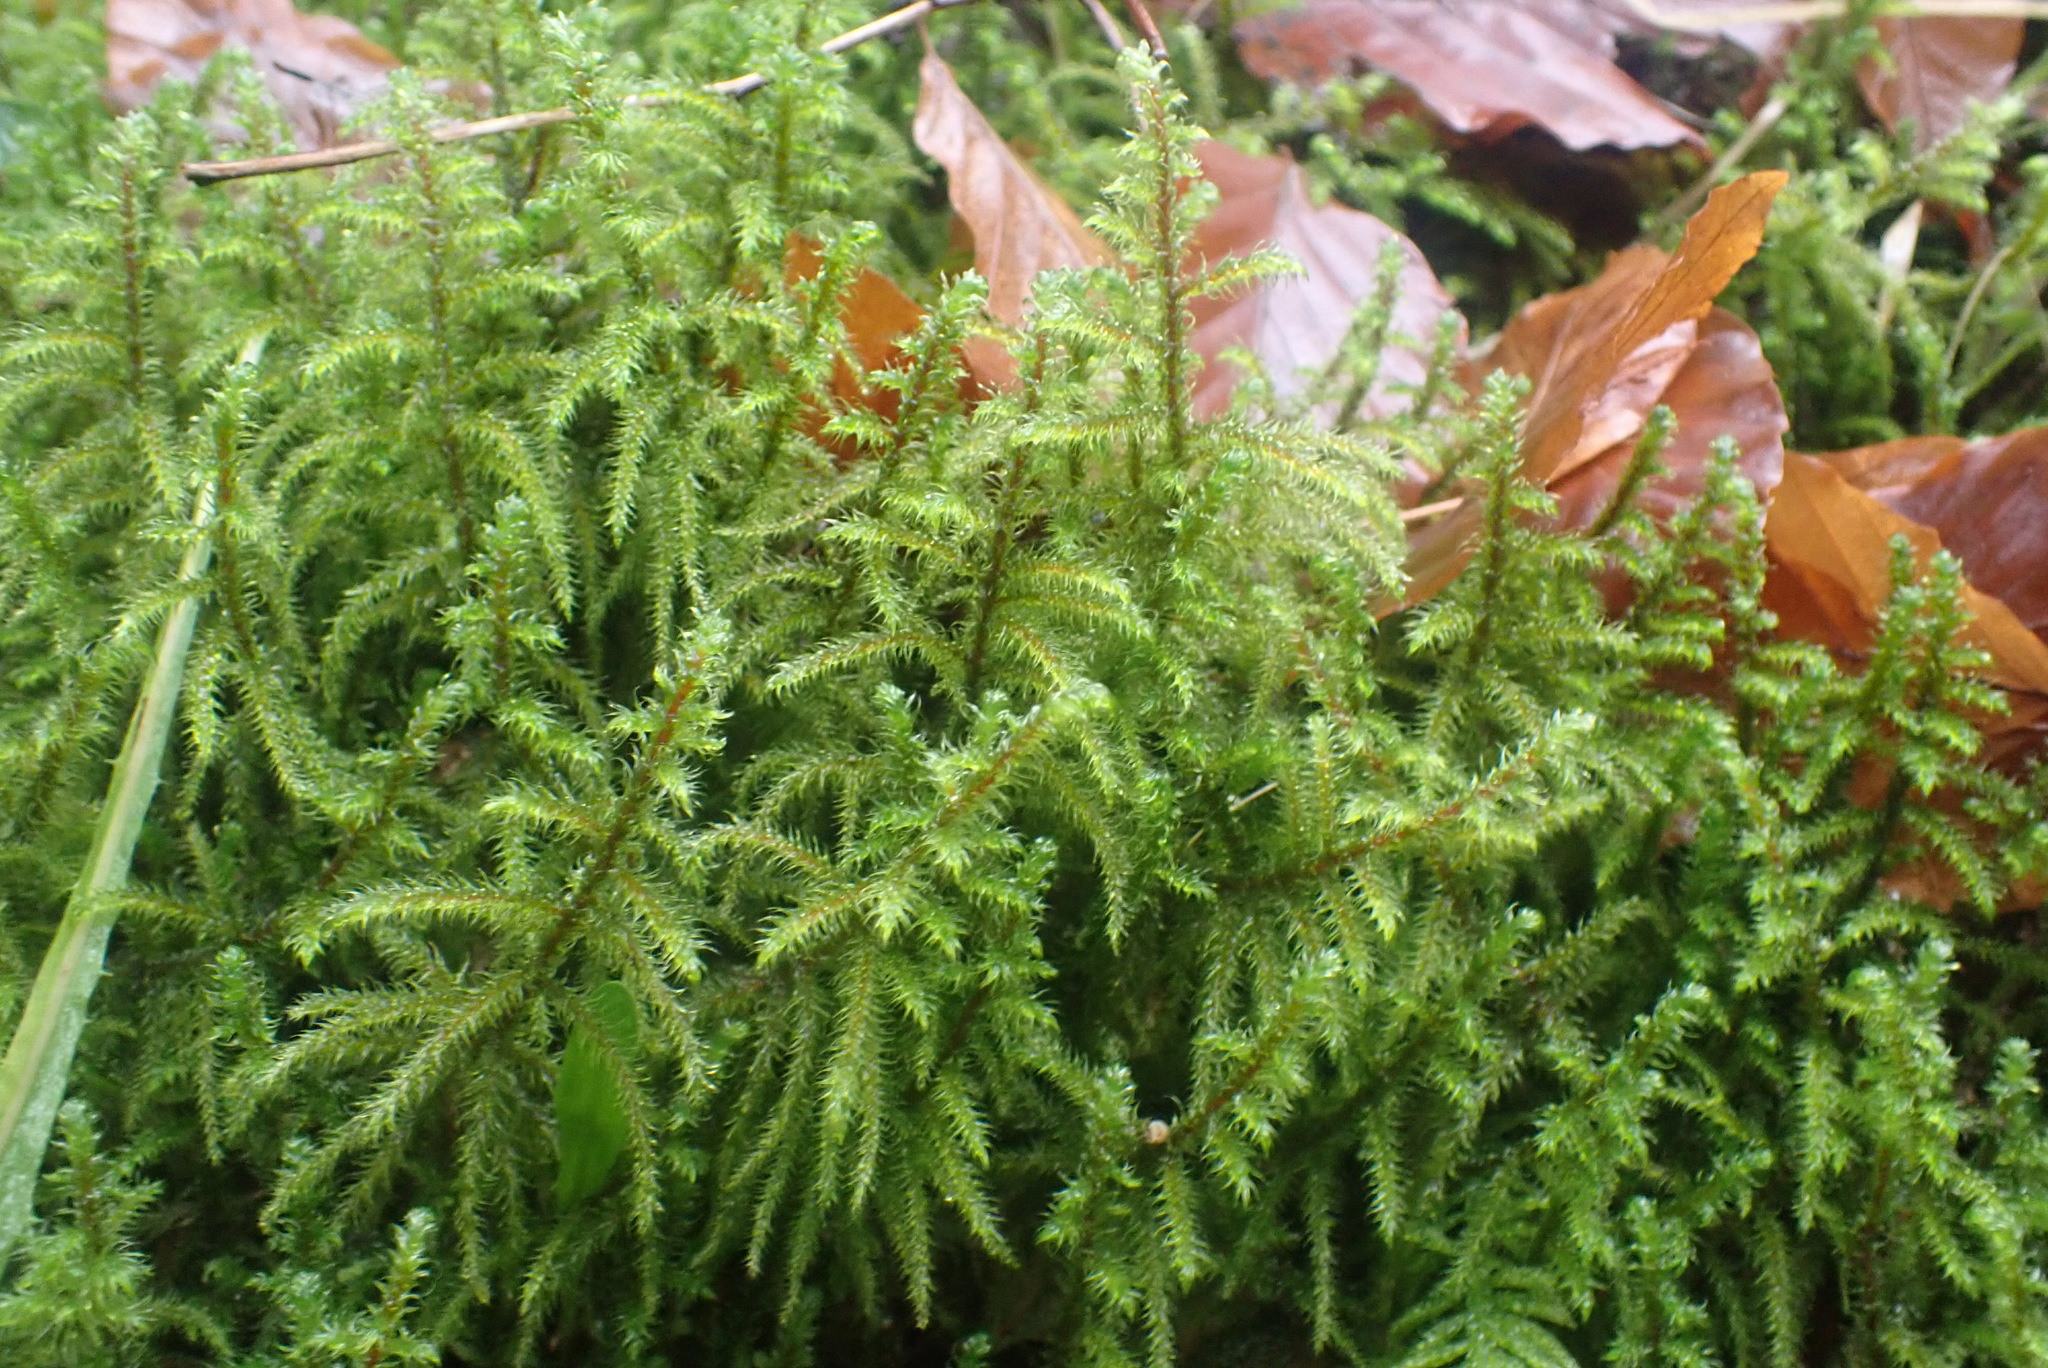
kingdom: Plantae
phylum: Bryophyta
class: Bryopsida
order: Hypnales
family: Hylocomiaceae
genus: Rhytidiadelphus
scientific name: Rhytidiadelphus loreus
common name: Lanky moss
